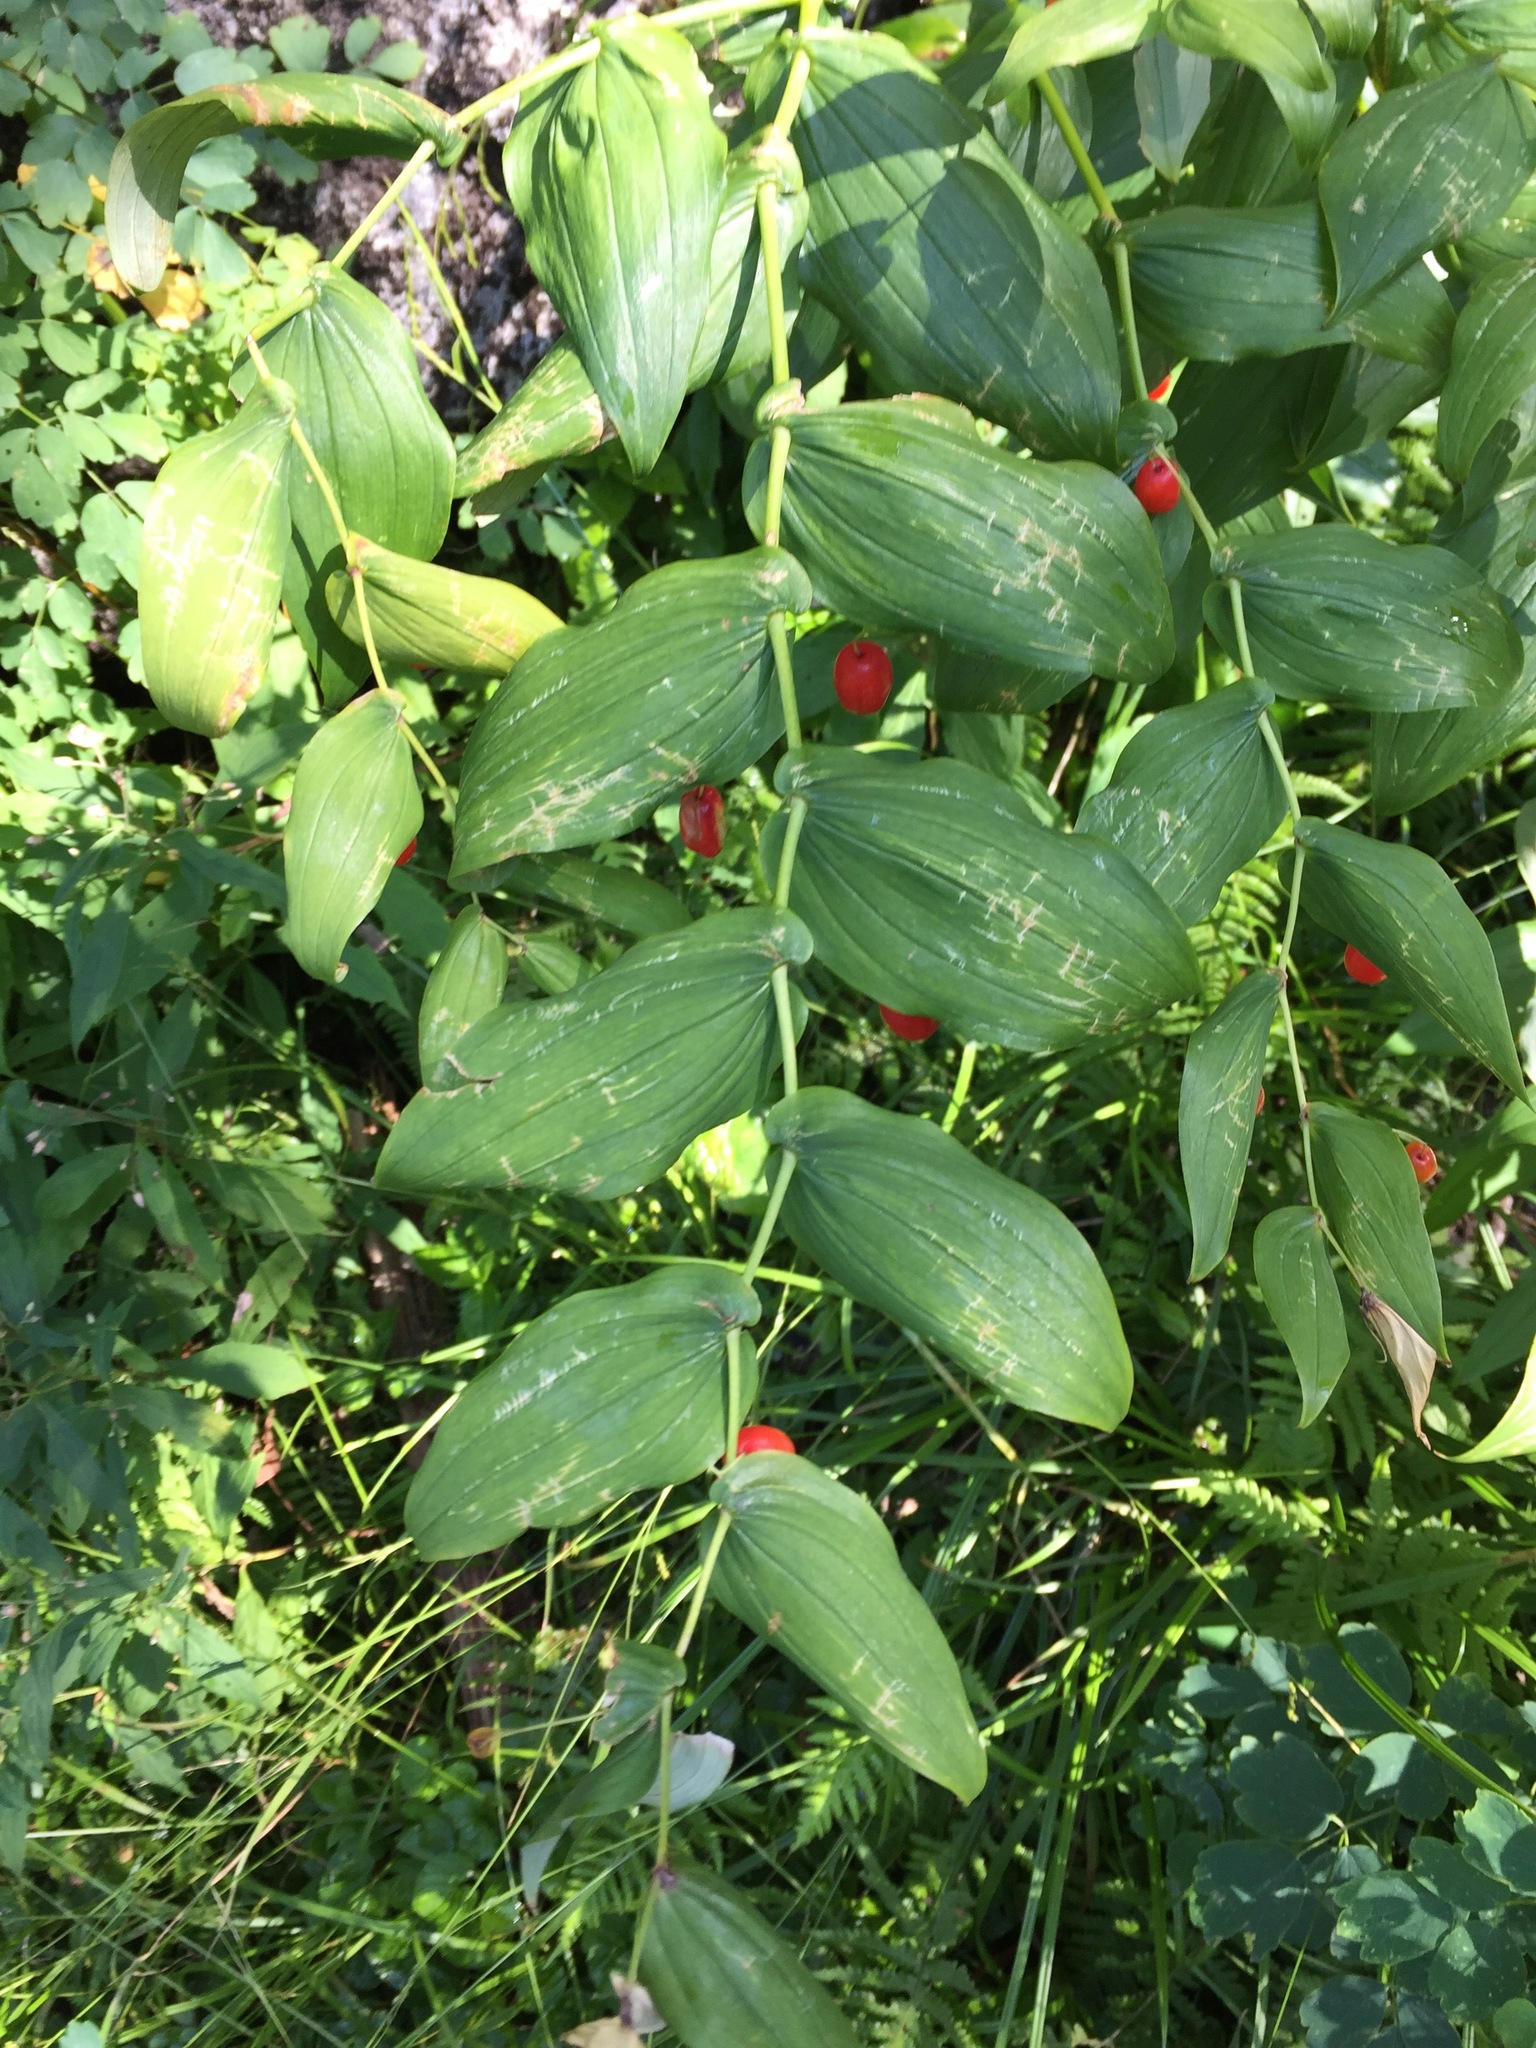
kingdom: Plantae
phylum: Tracheophyta
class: Liliopsida
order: Liliales
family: Liliaceae
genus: Streptopus
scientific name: Streptopus amplexifolius
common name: Clasp twisted stalk
